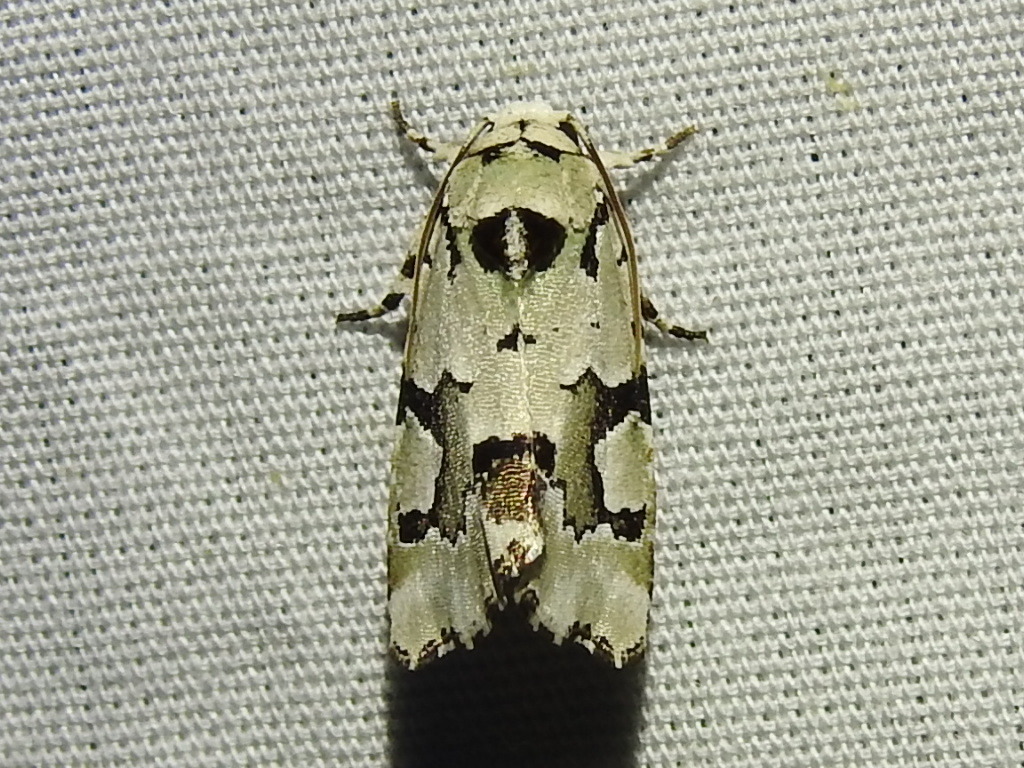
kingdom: Animalia
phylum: Arthropoda
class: Insecta
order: Lepidoptera
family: Noctuidae
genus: Emarginea
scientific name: Emarginea percara
